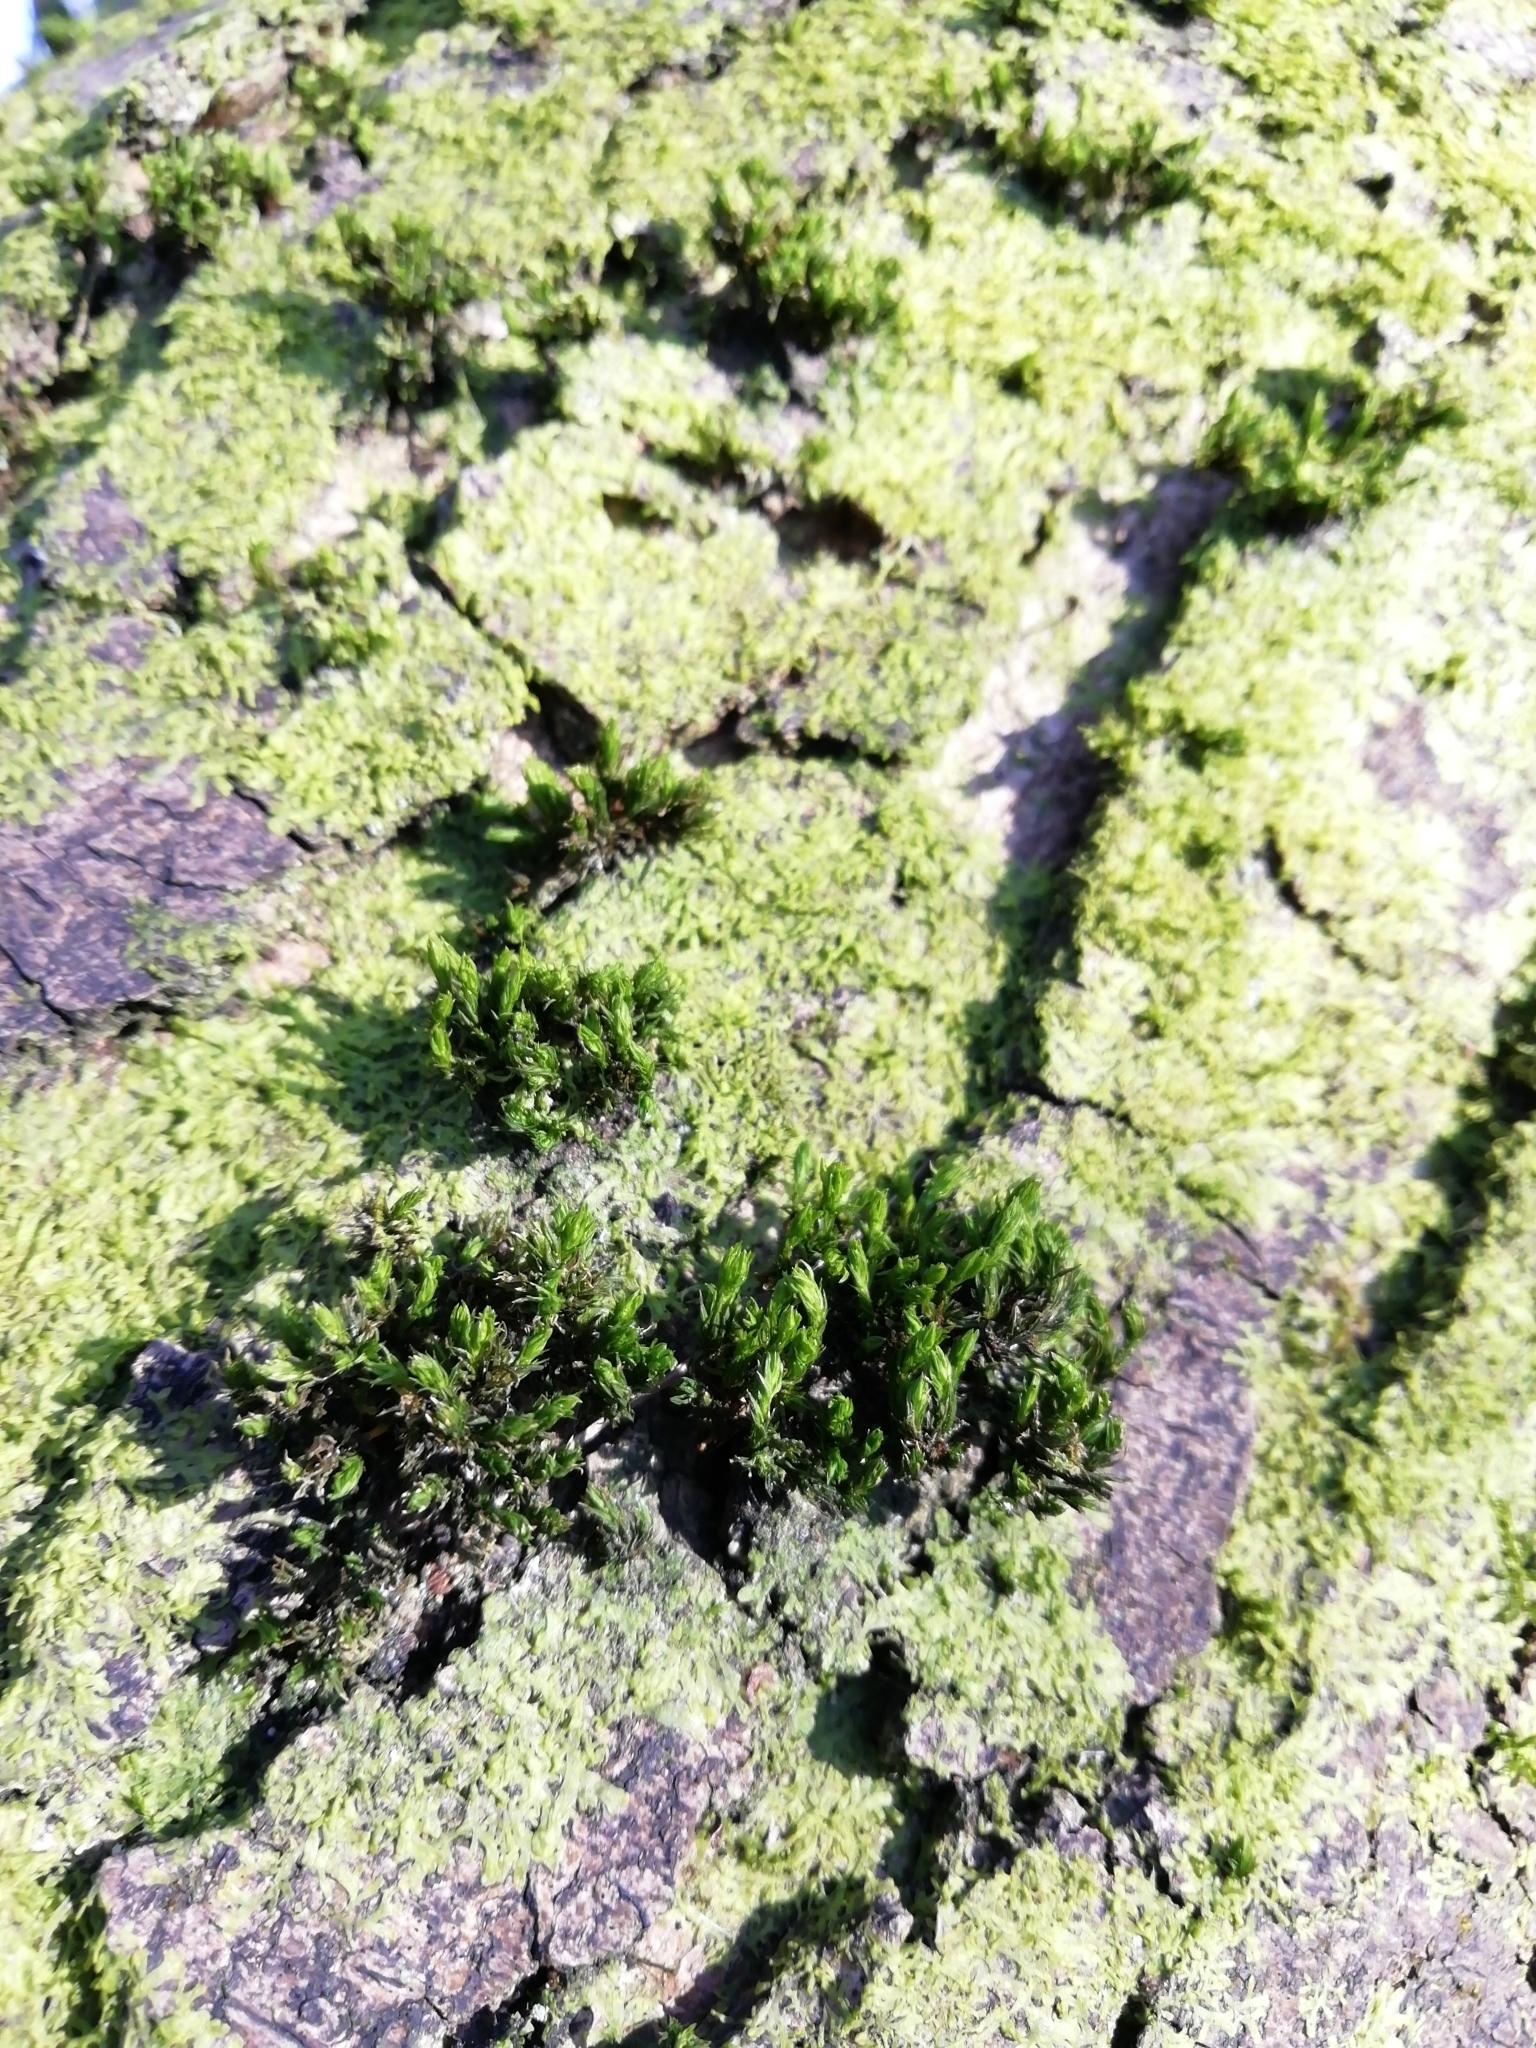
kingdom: Plantae
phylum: Bryophyta
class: Bryopsida
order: Orthotrichales
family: Orthotrichaceae
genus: Lewinskya
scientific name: Lewinskya affinis
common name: Wood bristle-moss
